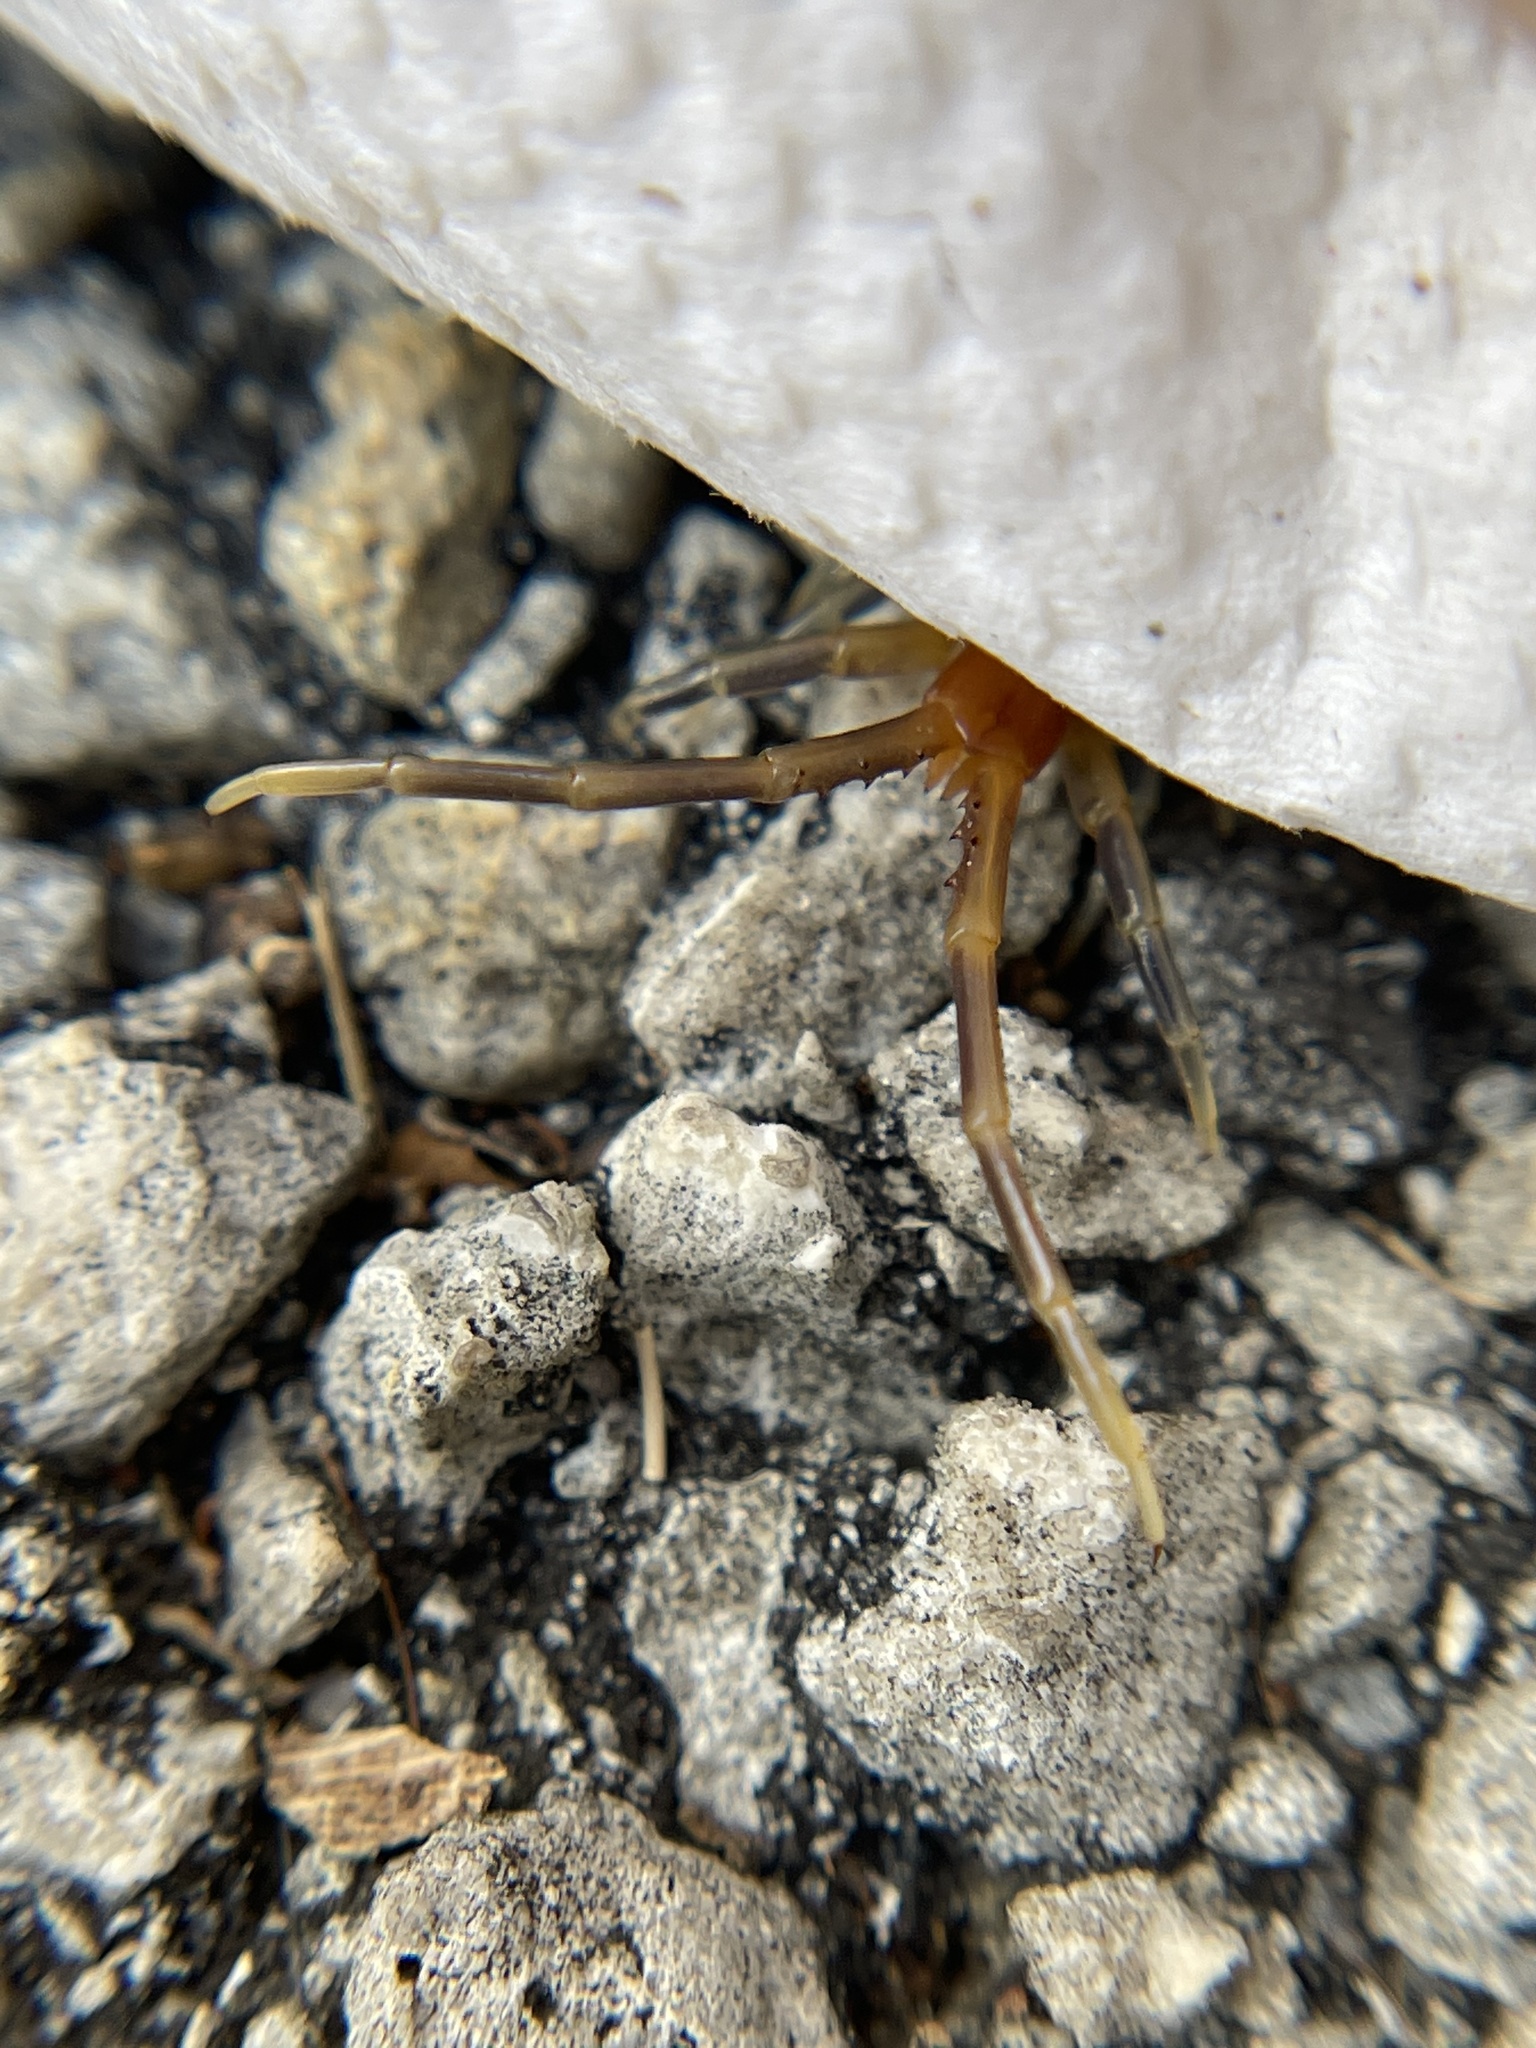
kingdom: Animalia
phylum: Arthropoda
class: Chilopoda
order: Scolopendromorpha
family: Scolopendridae
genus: Rhysida
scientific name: Rhysida longipes
